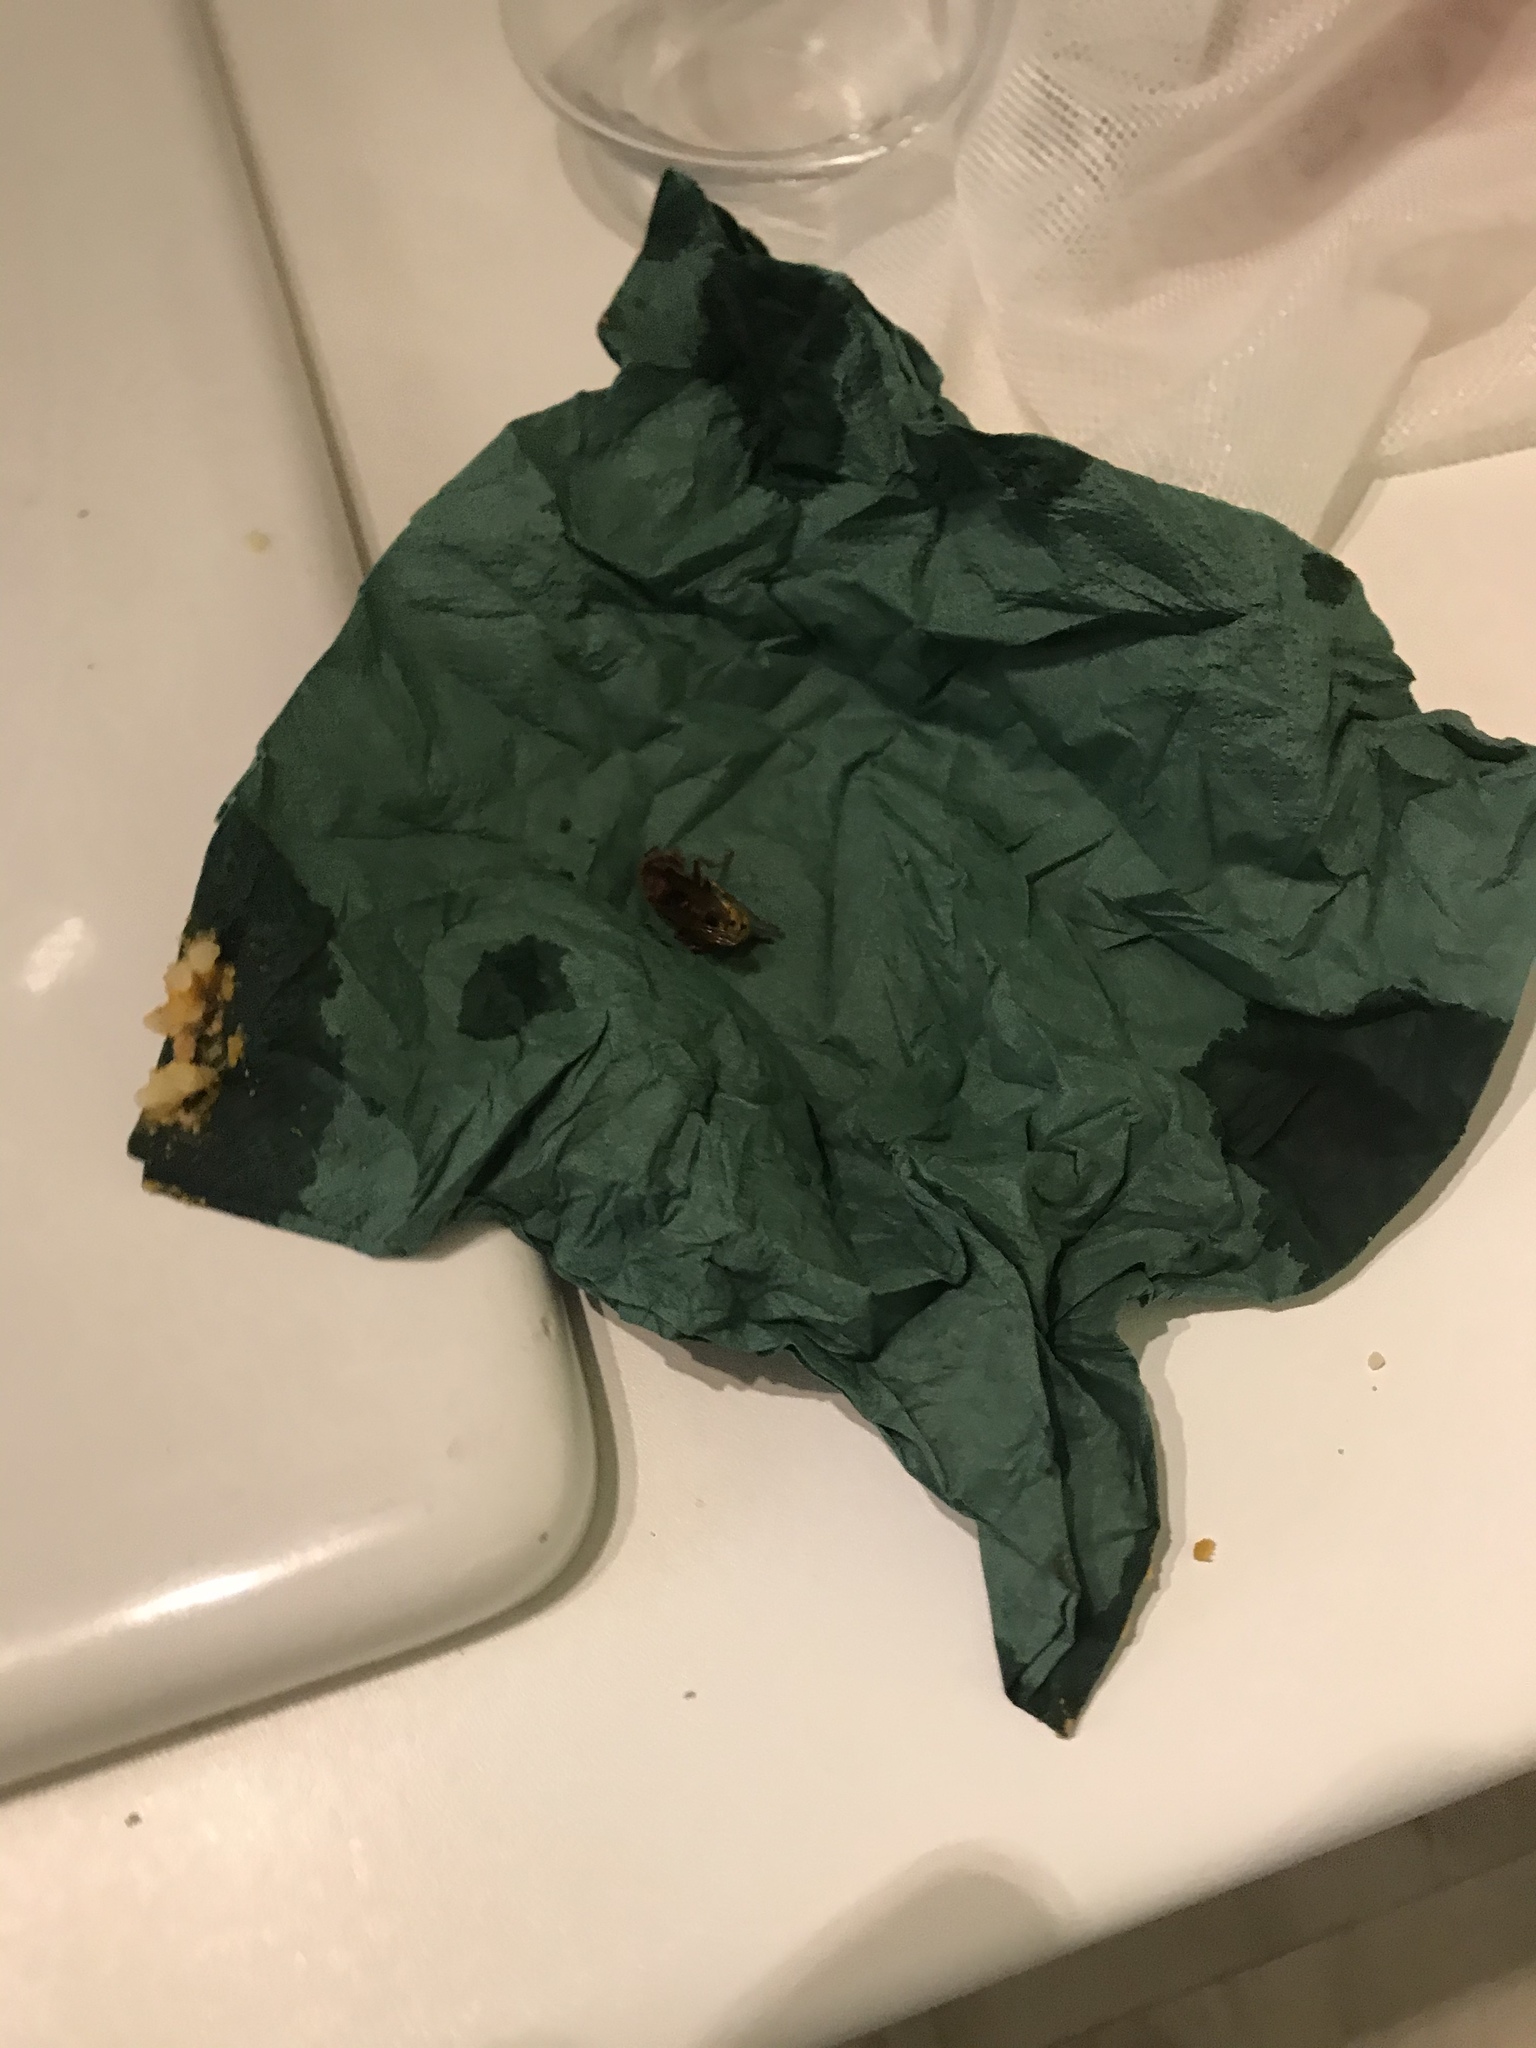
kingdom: Animalia
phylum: Arthropoda
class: Insecta
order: Hymenoptera
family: Vespidae
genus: Vespa
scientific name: Vespa crabro
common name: Hornet
